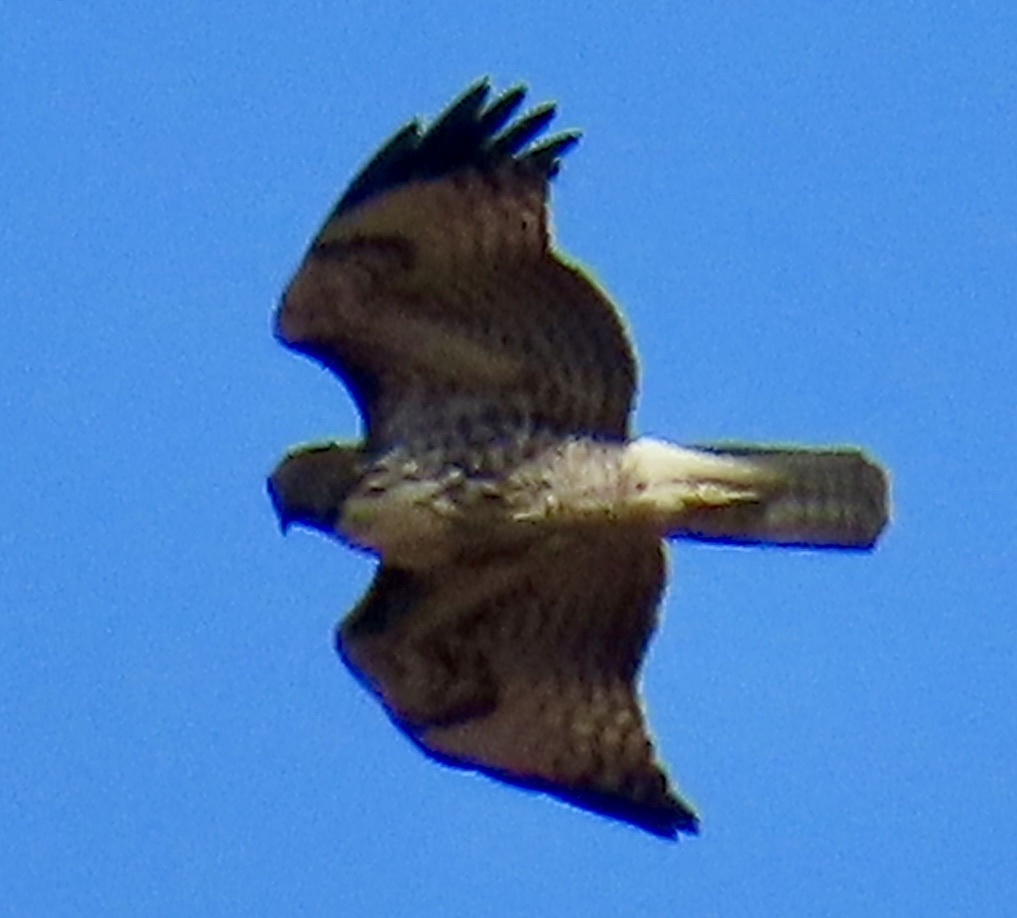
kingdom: Animalia
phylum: Chordata
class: Aves
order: Accipitriformes
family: Accipitridae
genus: Buteo
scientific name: Buteo jamaicensis
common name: Red-tailed hawk
